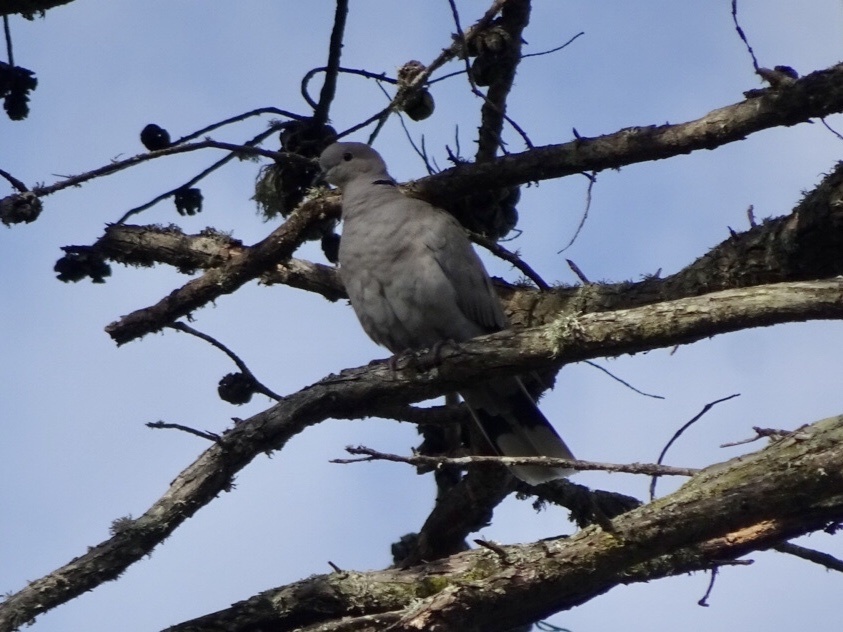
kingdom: Animalia
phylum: Chordata
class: Aves
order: Columbiformes
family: Columbidae
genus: Streptopelia
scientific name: Streptopelia decaocto
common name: Eurasian collared dove
